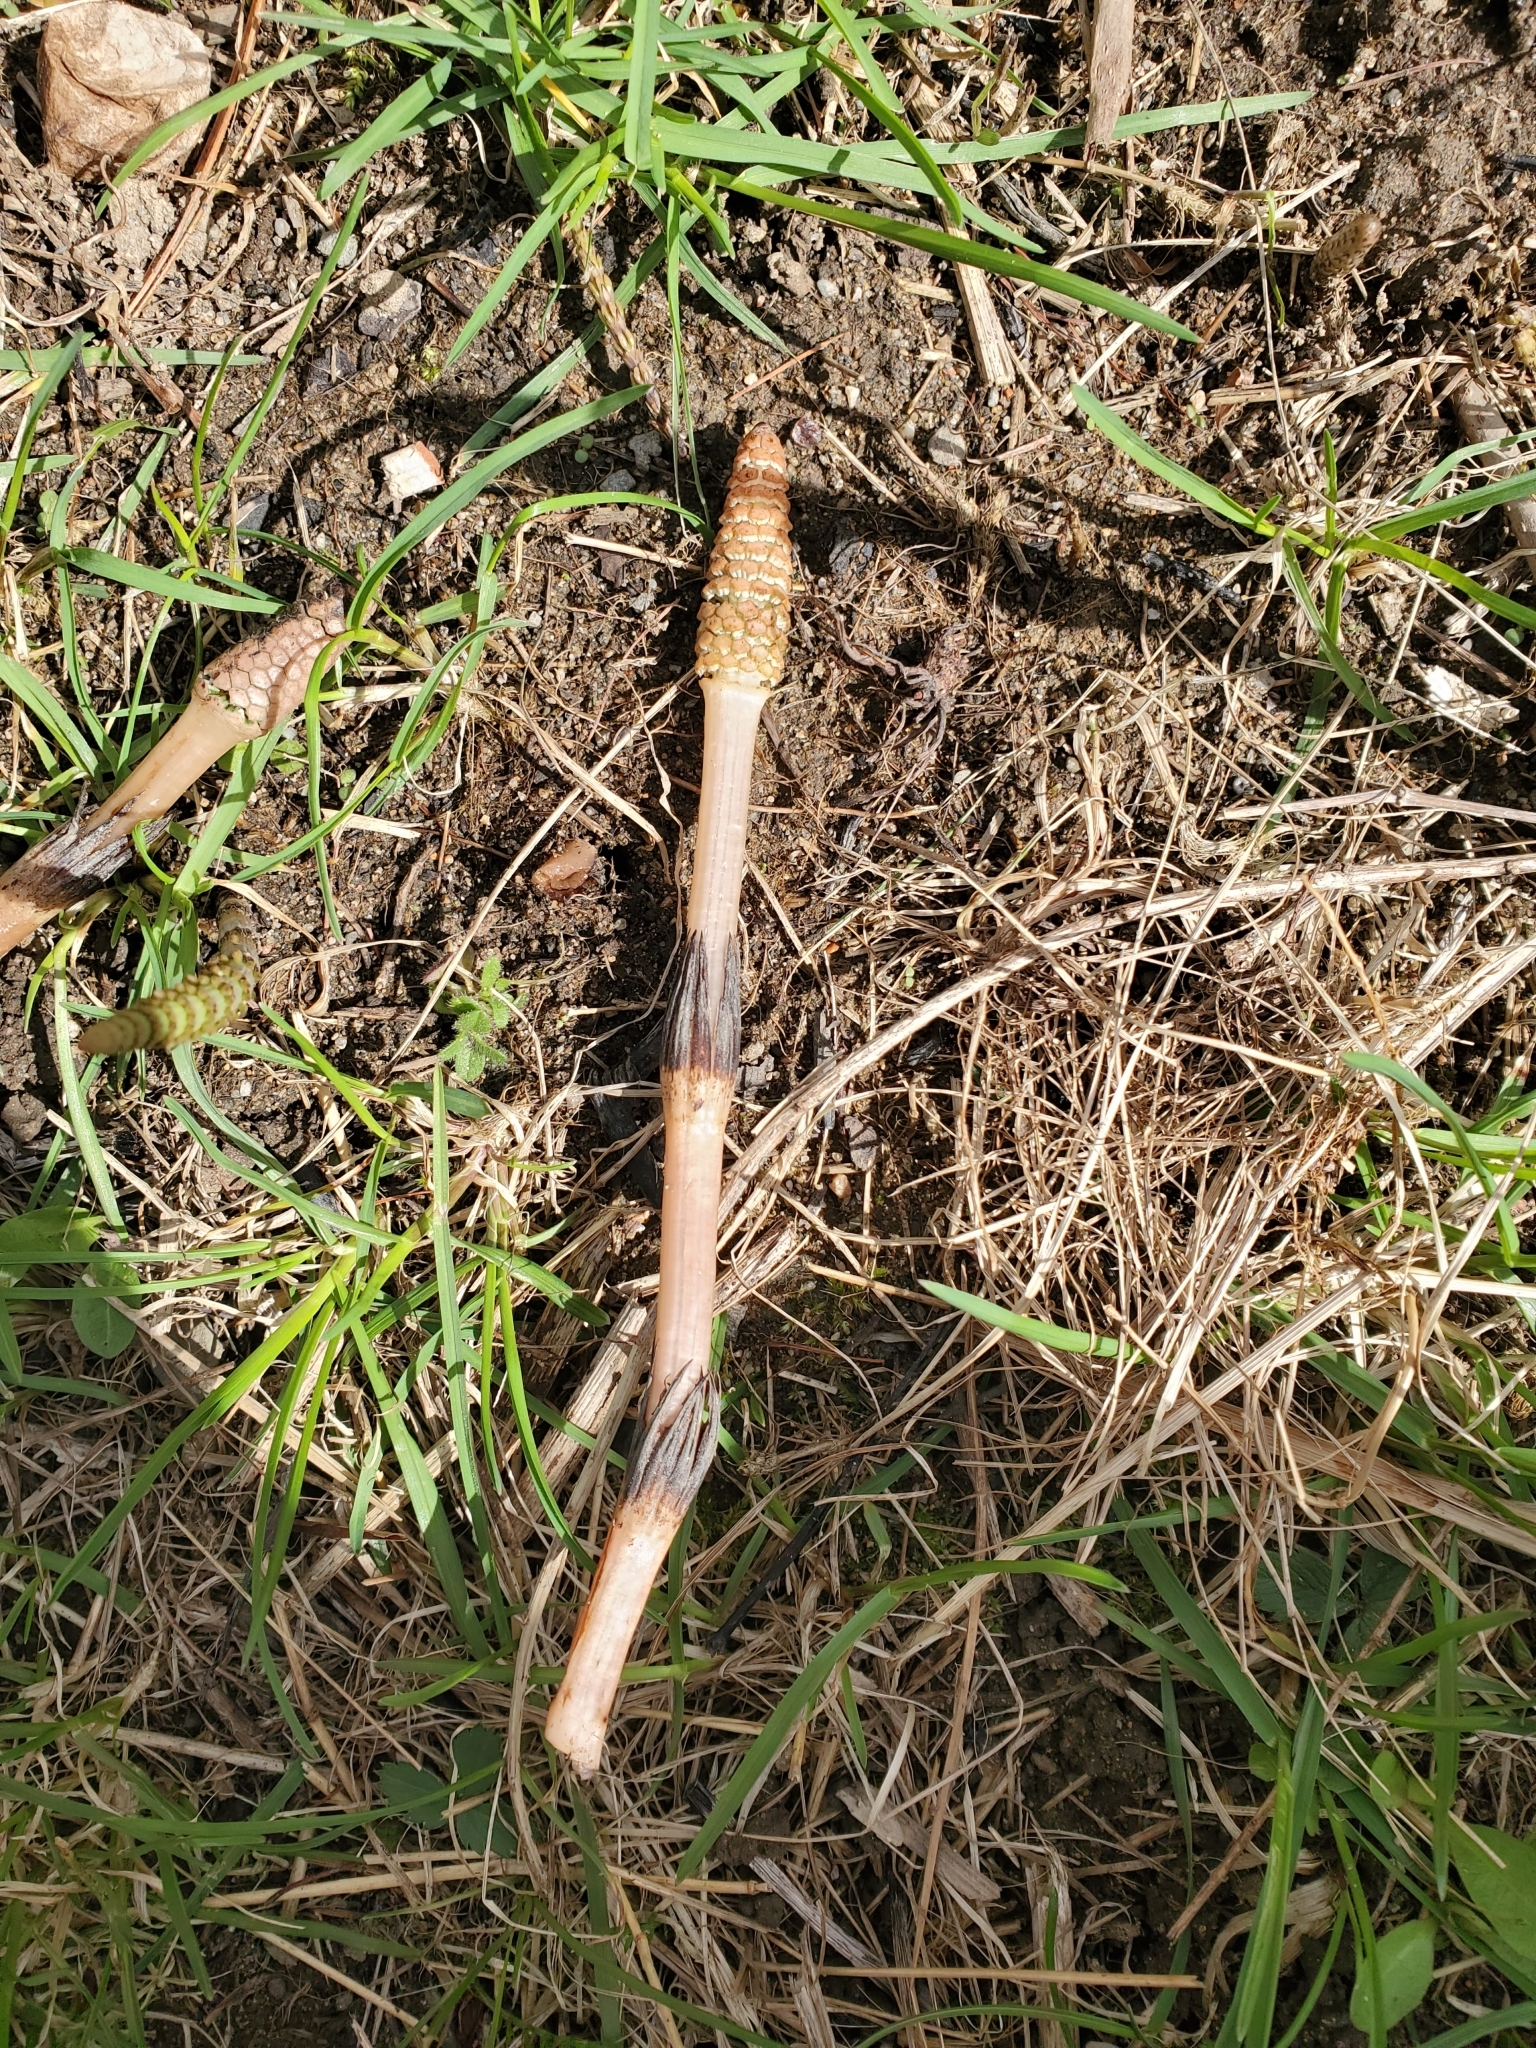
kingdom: Plantae
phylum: Tracheophyta
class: Polypodiopsida
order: Equisetales
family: Equisetaceae
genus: Equisetum
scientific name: Equisetum arvense
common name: Field horsetail
